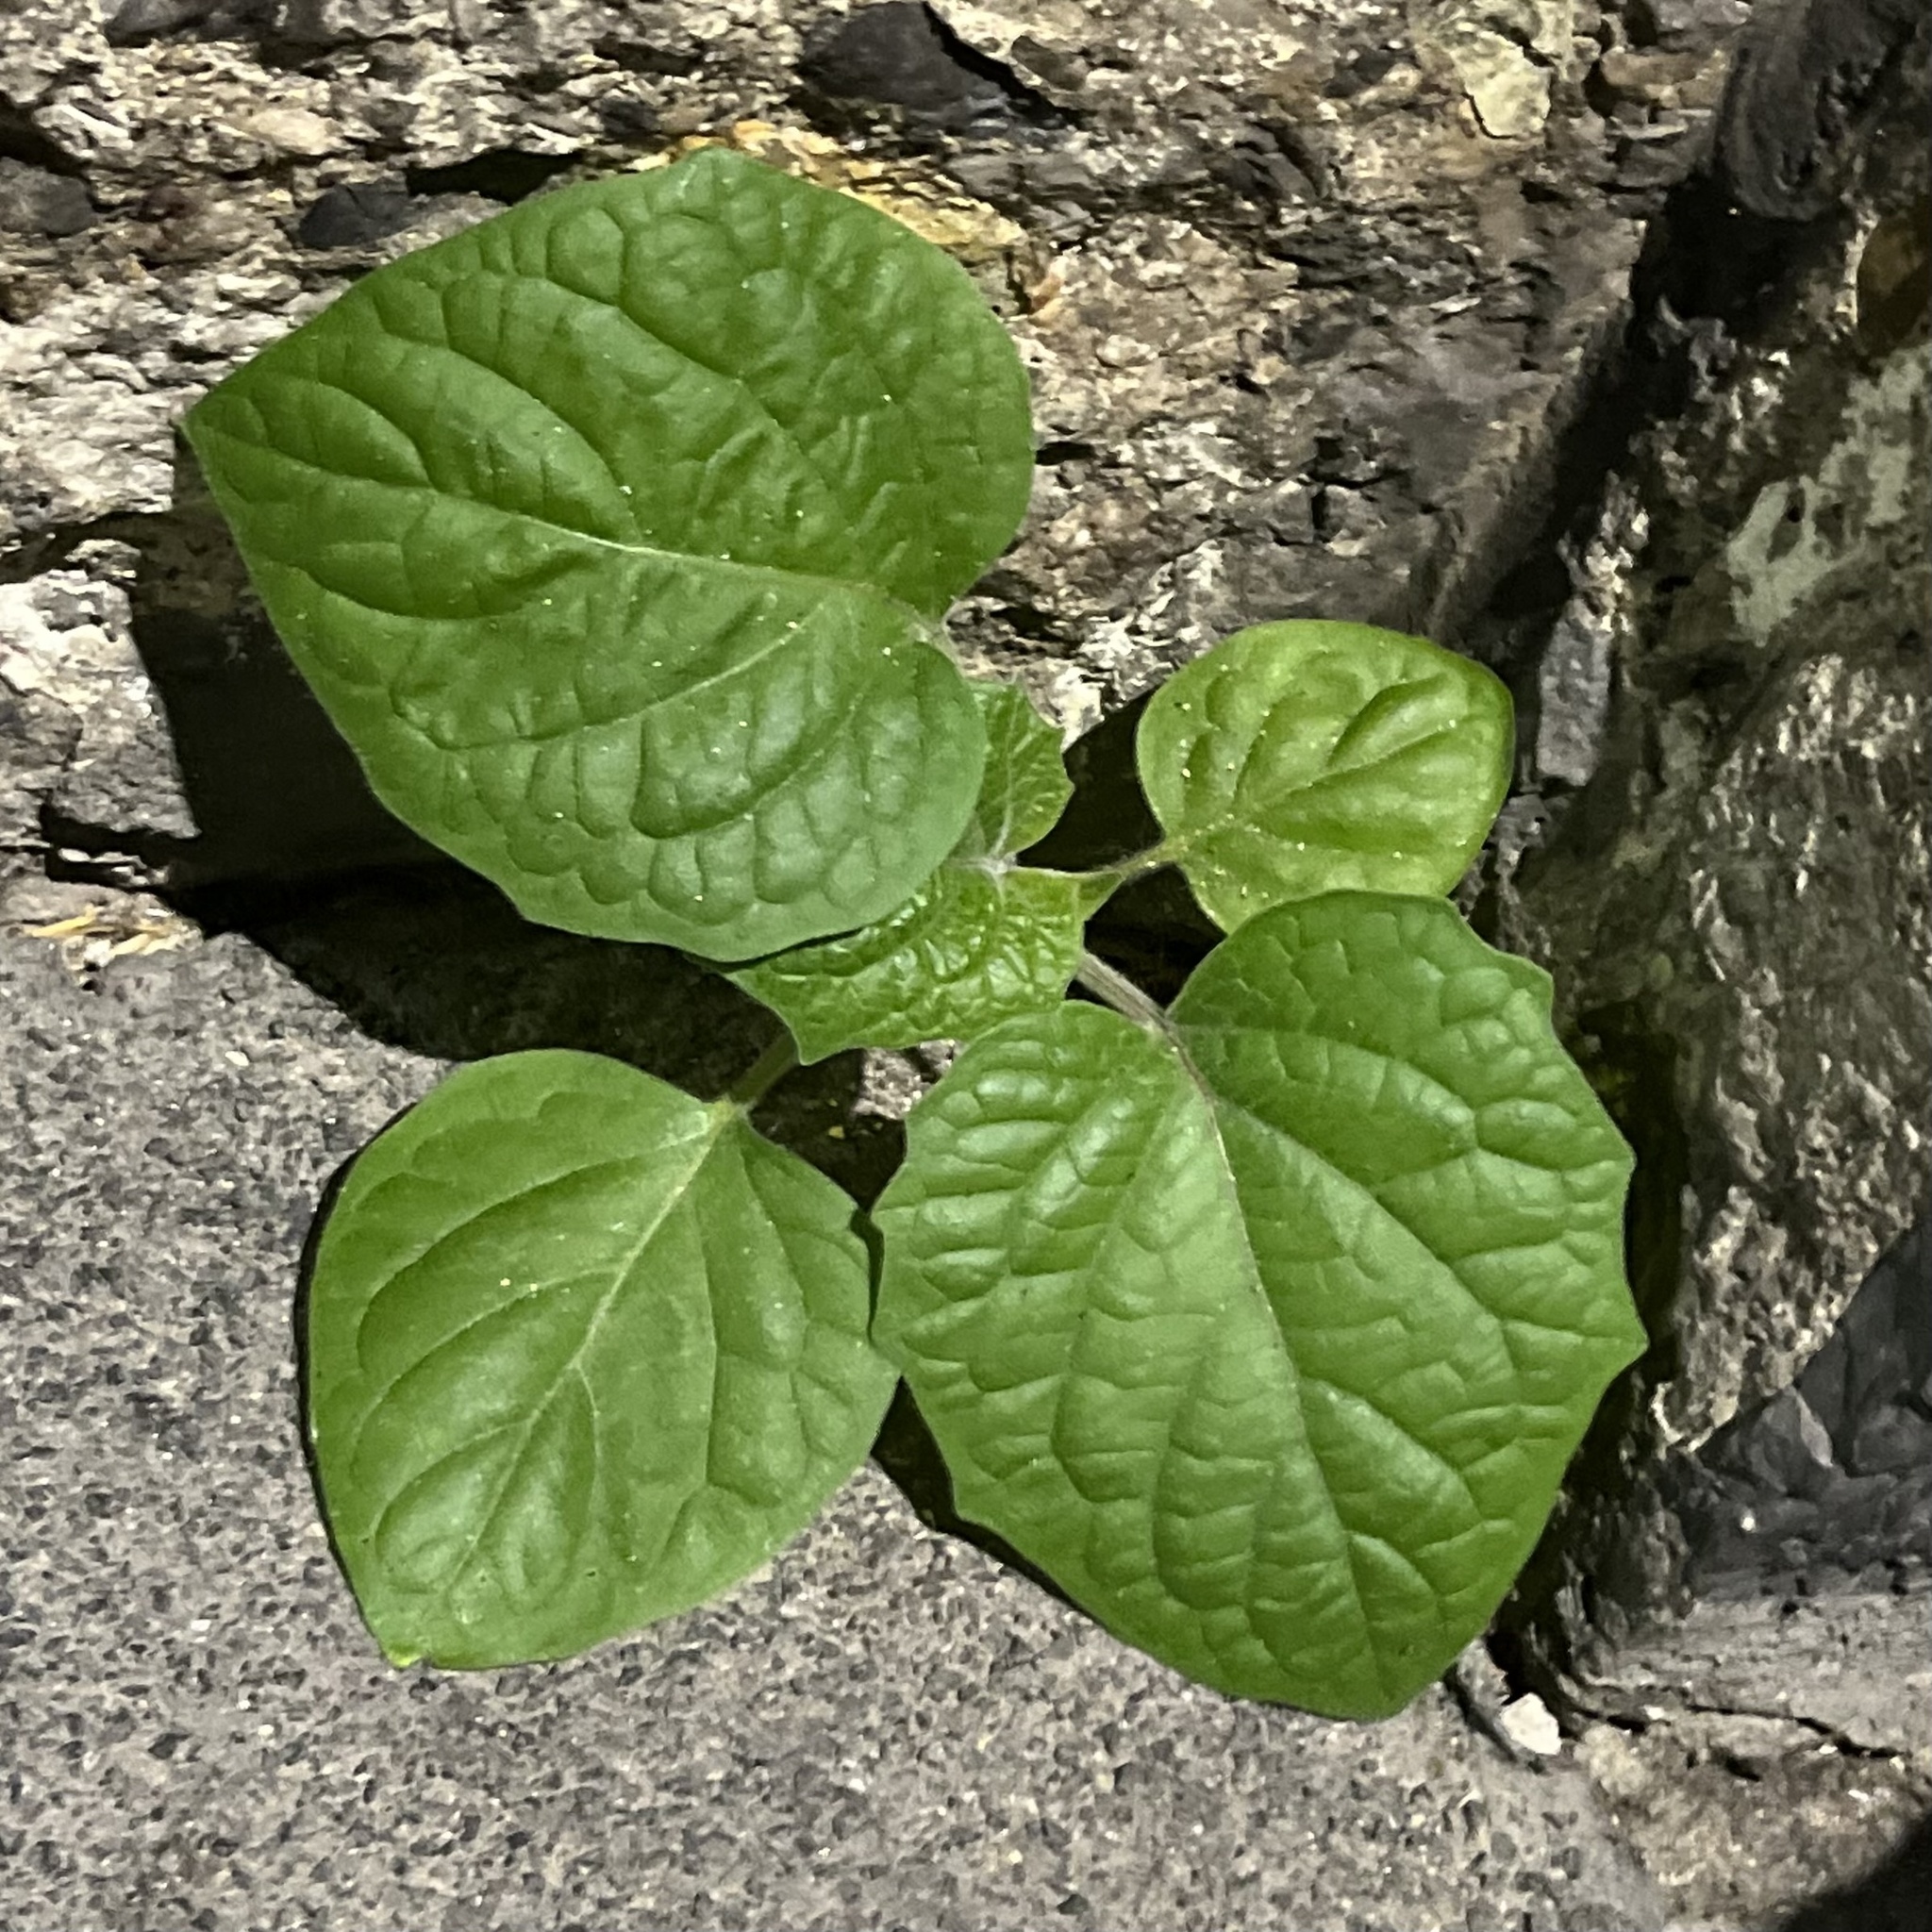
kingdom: Plantae
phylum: Tracheophyta
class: Magnoliopsida
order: Solanales
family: Solanaceae
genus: Physalis
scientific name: Physalis peruviana
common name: Cape-gooseberry
